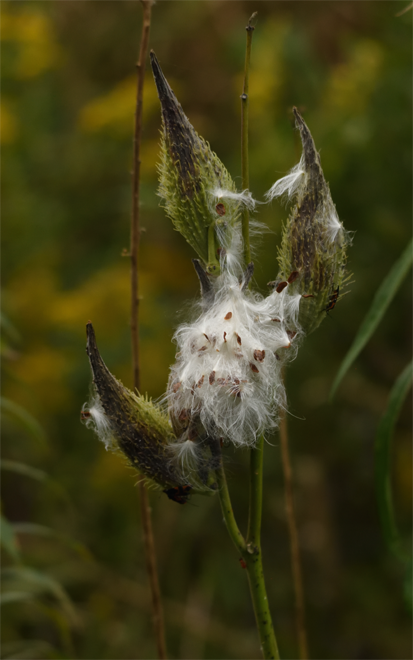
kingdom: Plantae
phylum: Tracheophyta
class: Magnoliopsida
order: Gentianales
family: Apocynaceae
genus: Asclepias
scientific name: Asclepias syriaca
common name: Common milkweed
